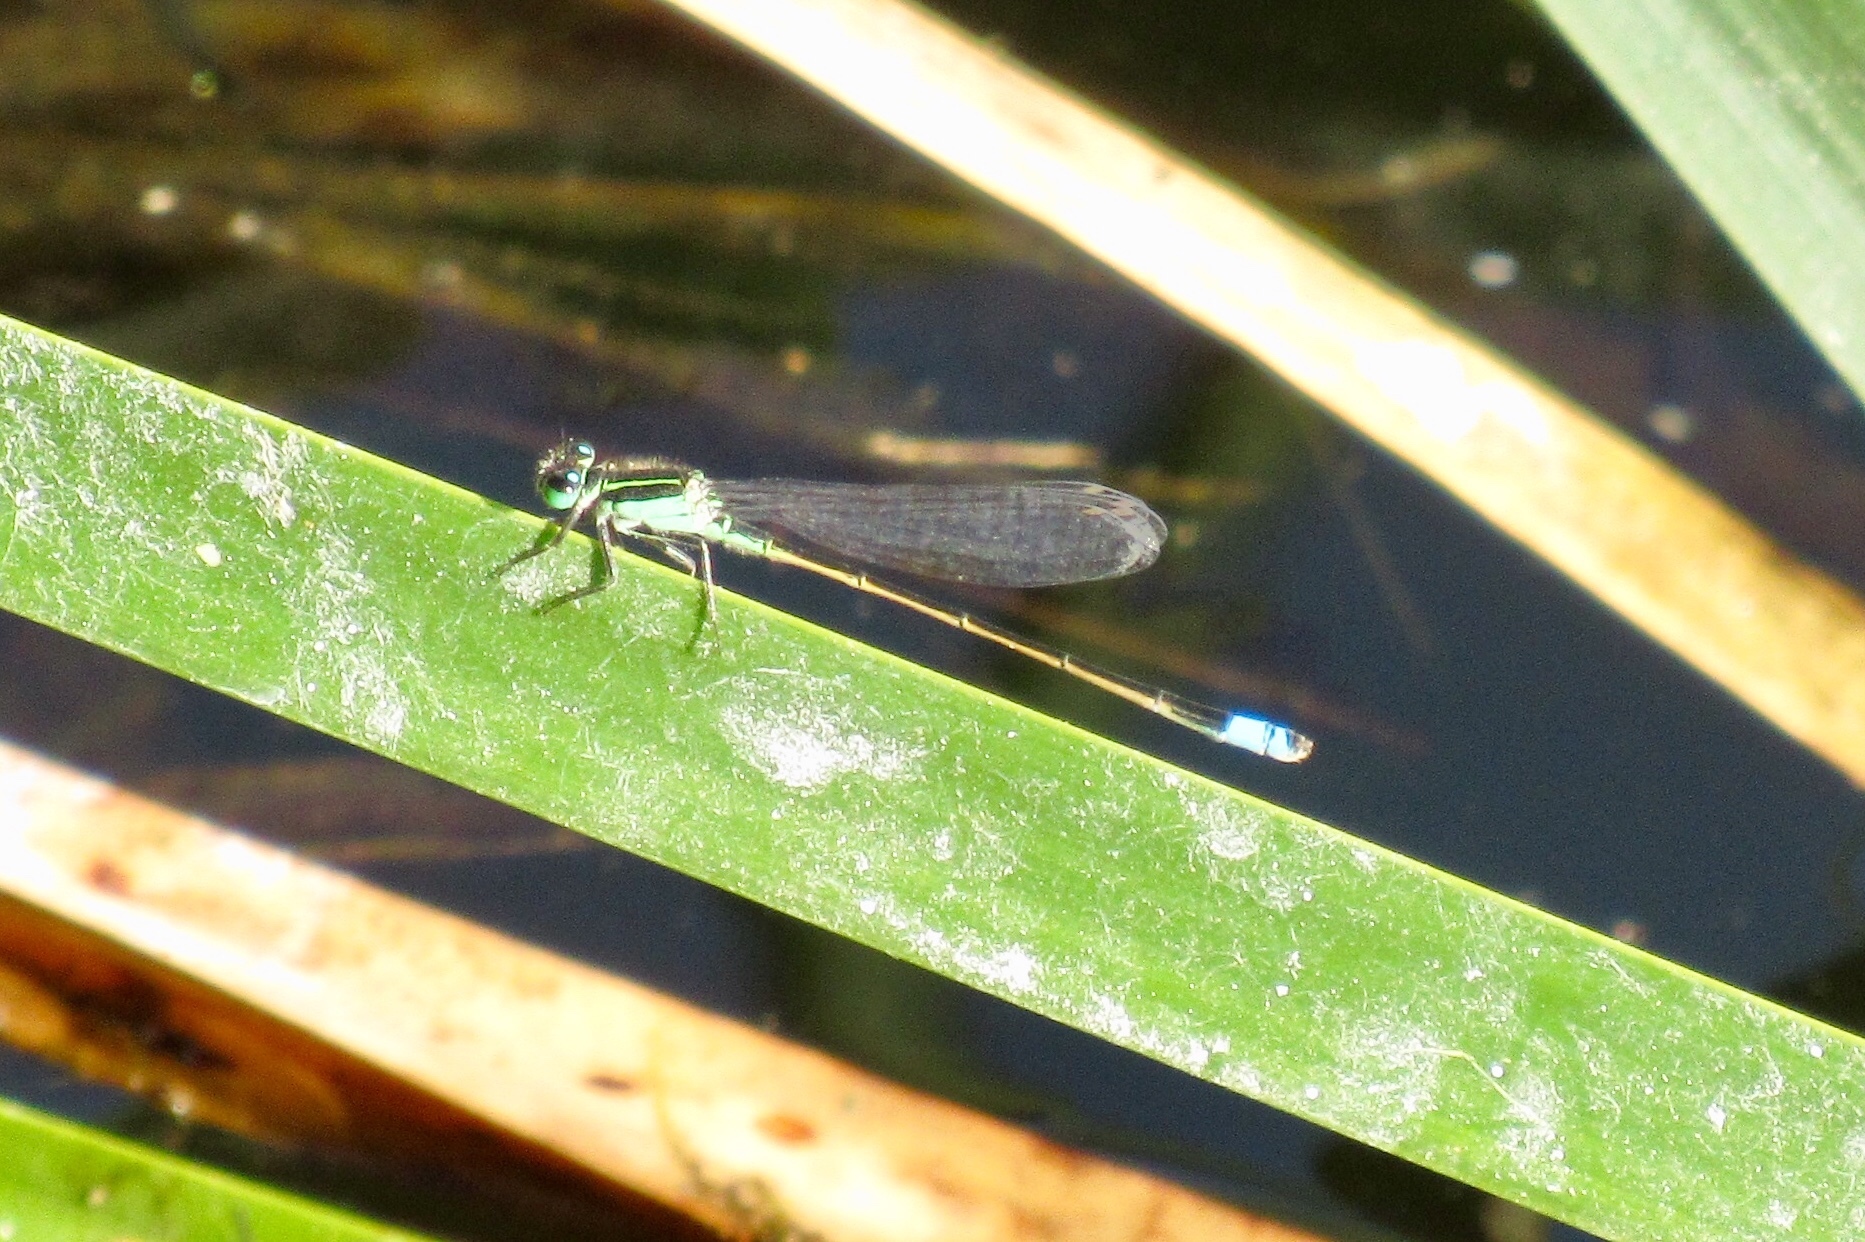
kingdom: Animalia
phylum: Arthropoda
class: Insecta
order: Odonata
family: Coenagrionidae
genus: Ischnura
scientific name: Ischnura ramburii
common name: Rambur's forktail
